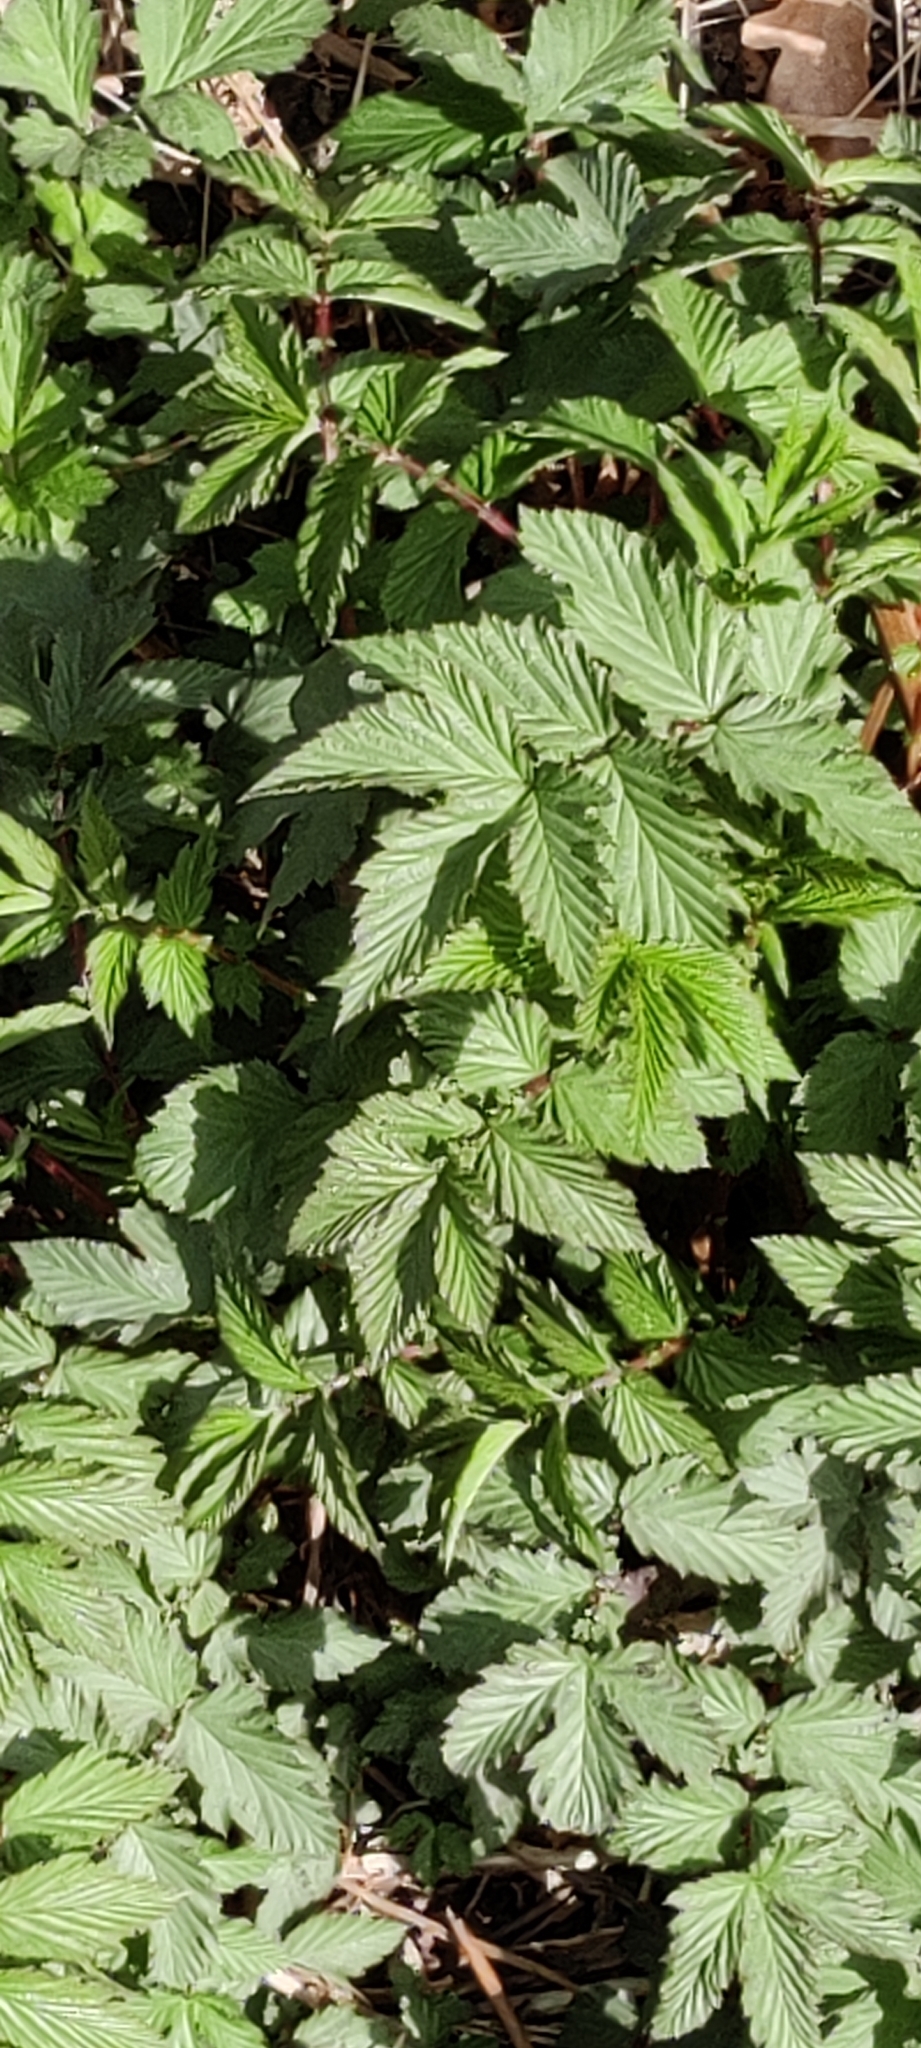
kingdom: Plantae
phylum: Tracheophyta
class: Magnoliopsida
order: Rosales
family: Rosaceae
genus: Filipendula
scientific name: Filipendula ulmaria
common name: Meadowsweet
